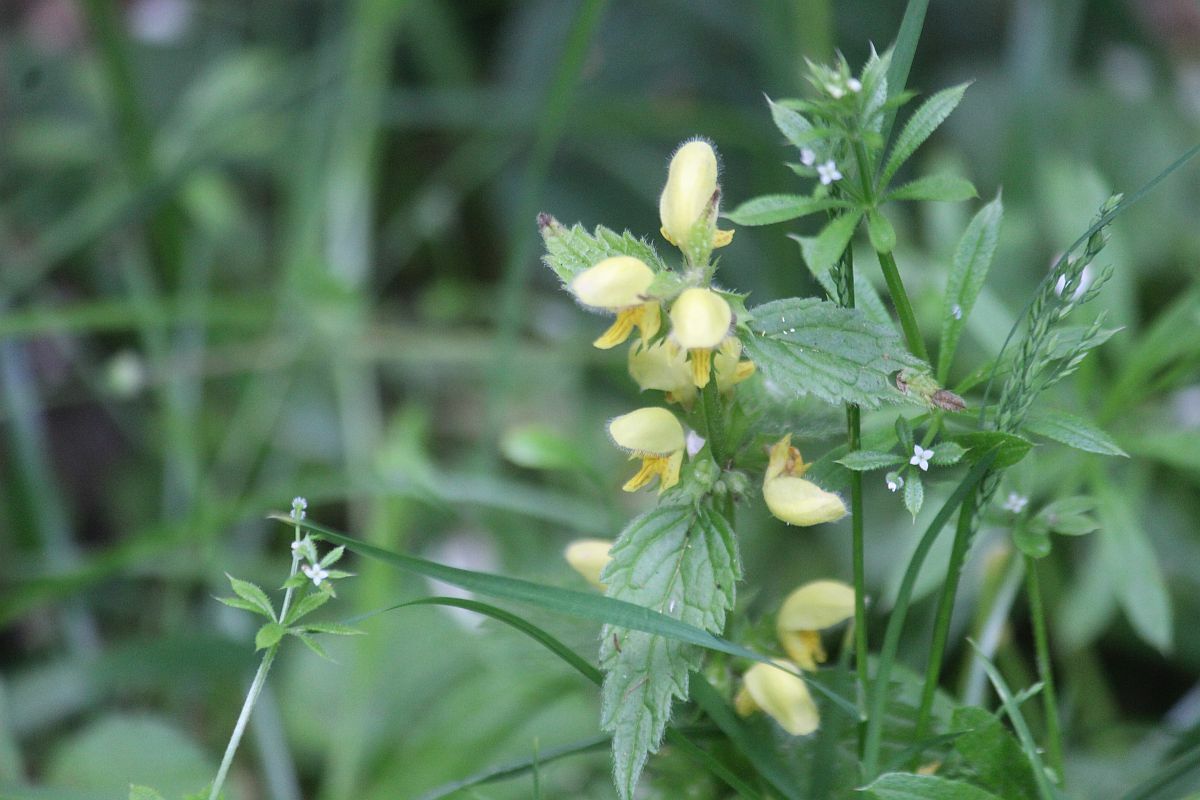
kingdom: Plantae
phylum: Tracheophyta
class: Magnoliopsida
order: Lamiales
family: Lamiaceae
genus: Lamium
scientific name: Lamium galeobdolon
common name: Yellow archangel
